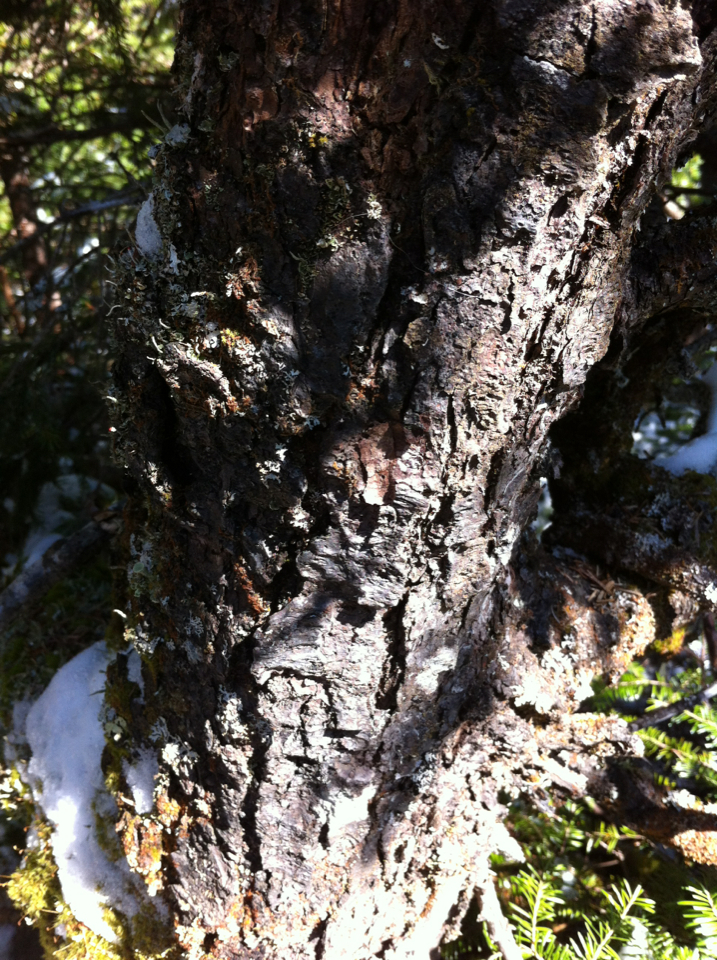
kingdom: Plantae
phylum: Tracheophyta
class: Pinopsida
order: Pinales
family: Pinaceae
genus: Picea
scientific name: Picea rubens
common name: Red spruce
